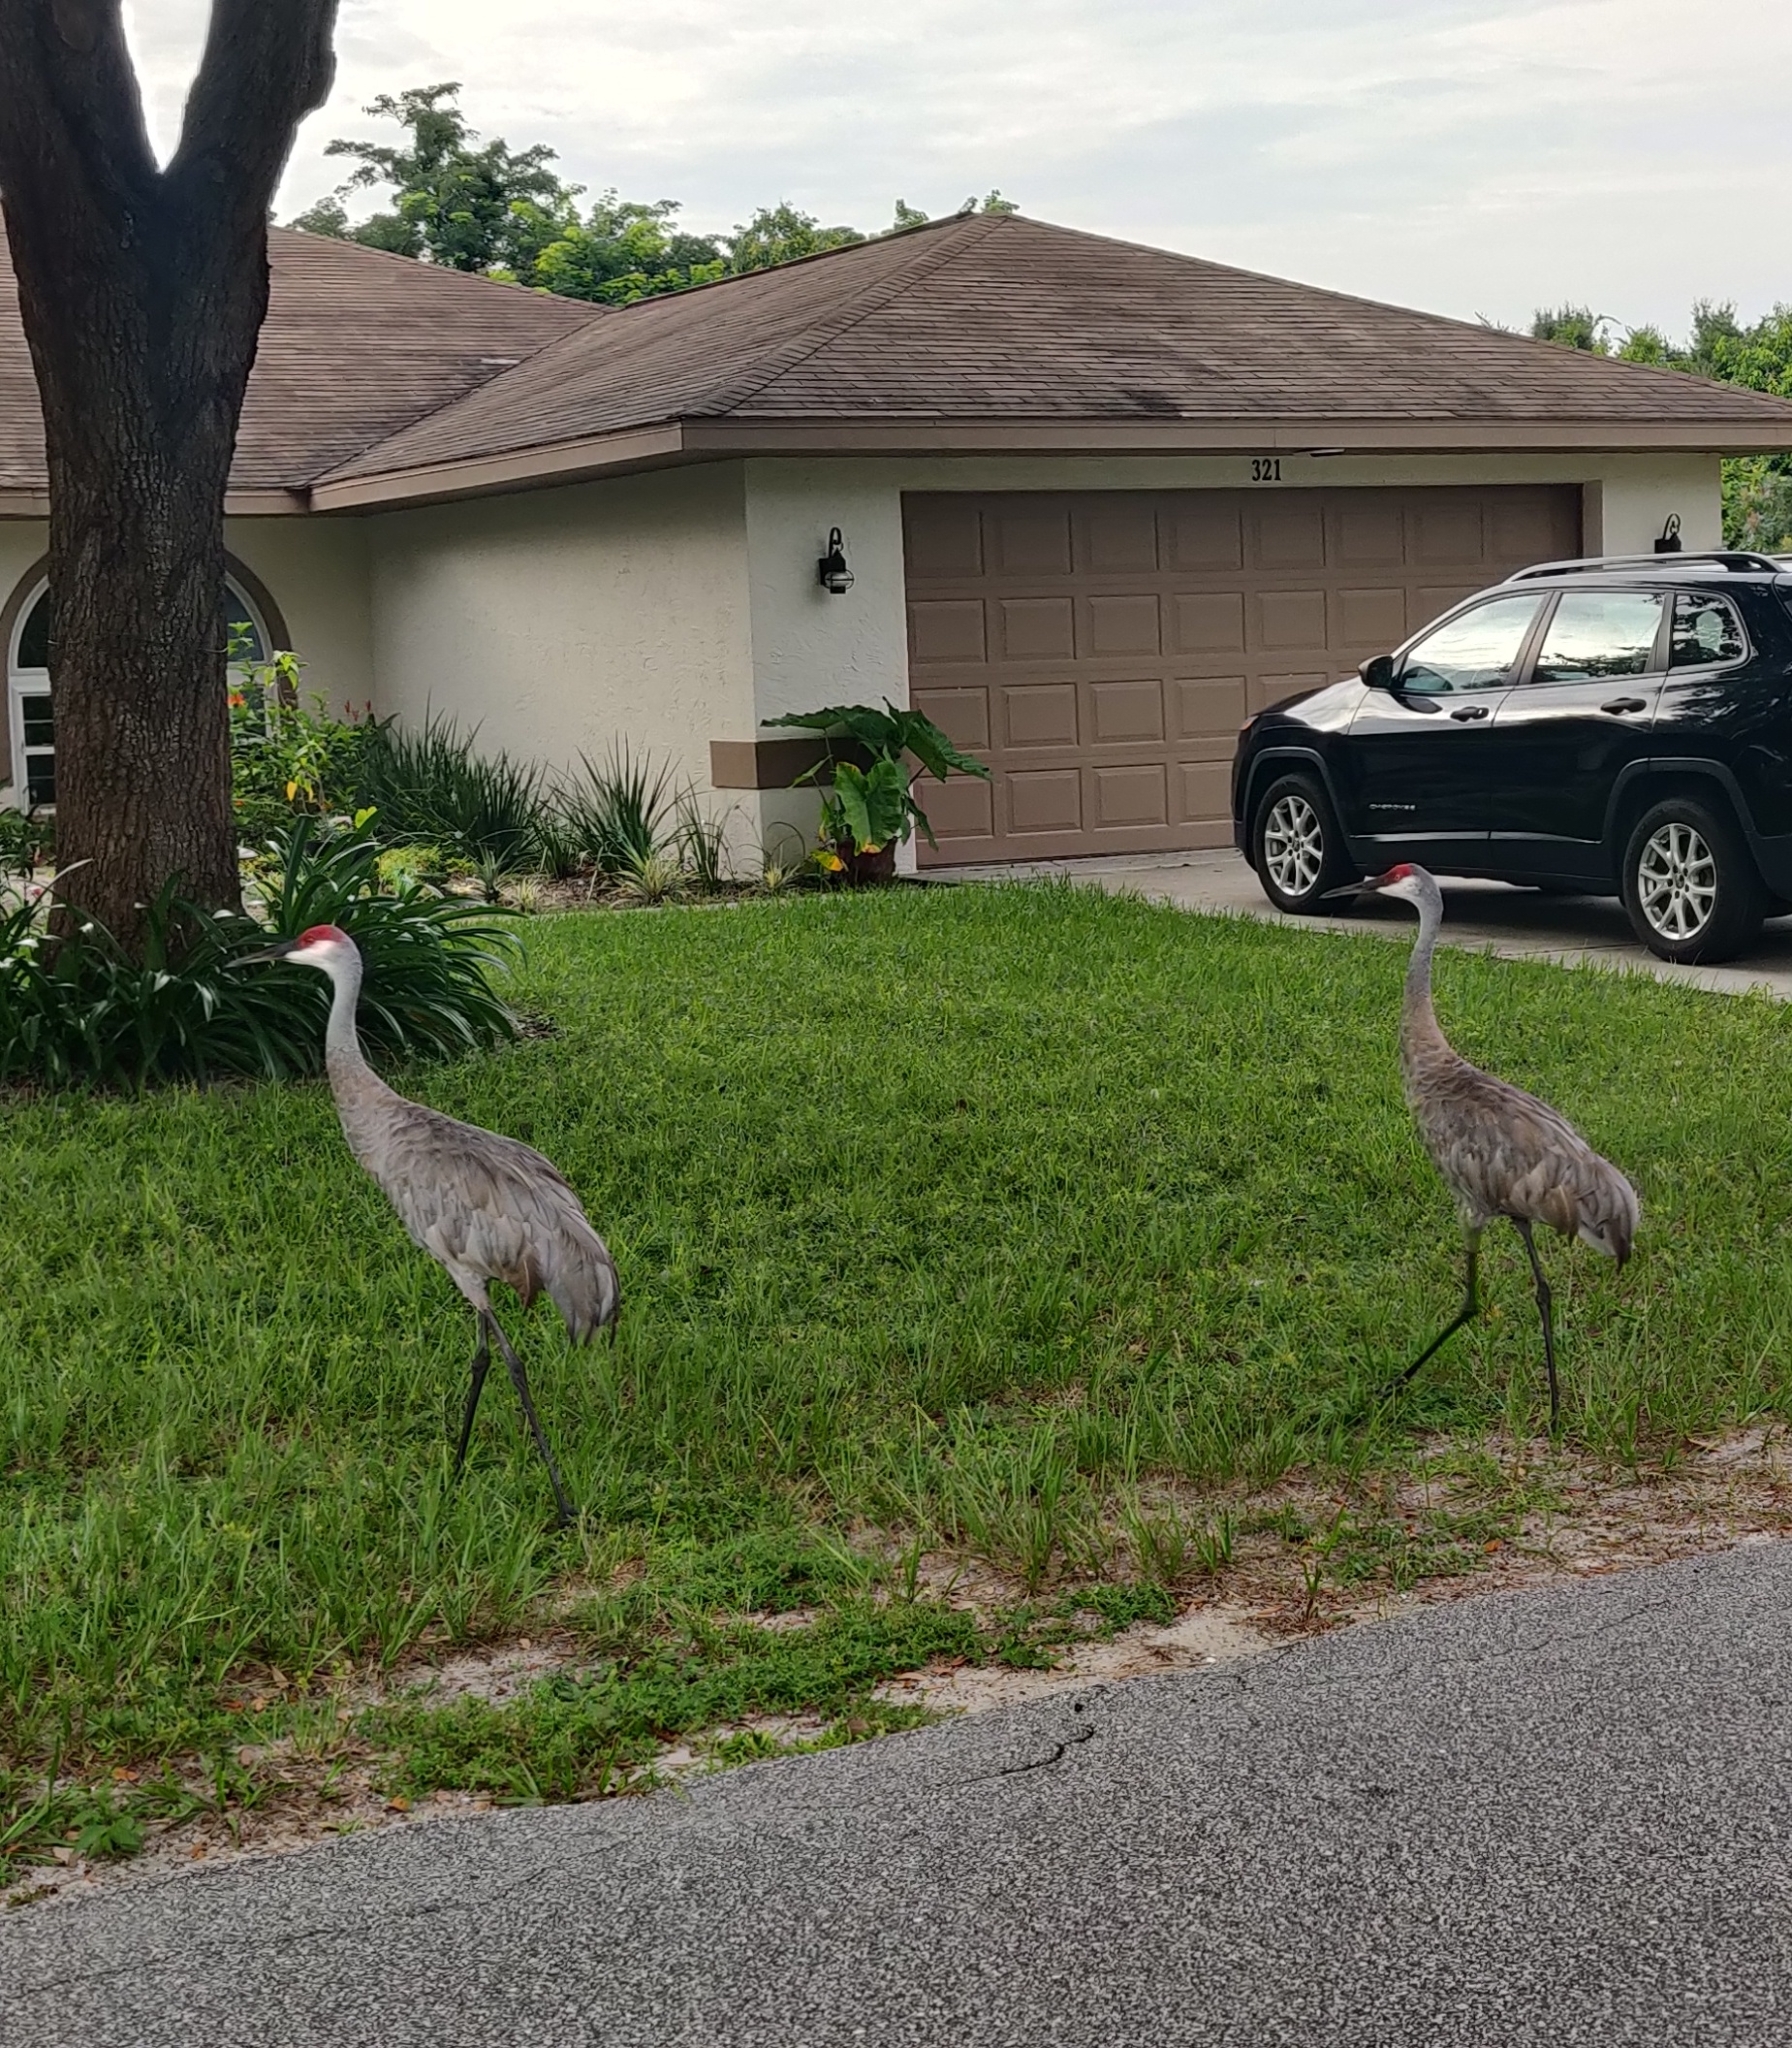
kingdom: Animalia
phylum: Chordata
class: Aves
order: Gruiformes
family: Gruidae
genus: Grus
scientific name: Grus canadensis
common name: Sandhill crane
